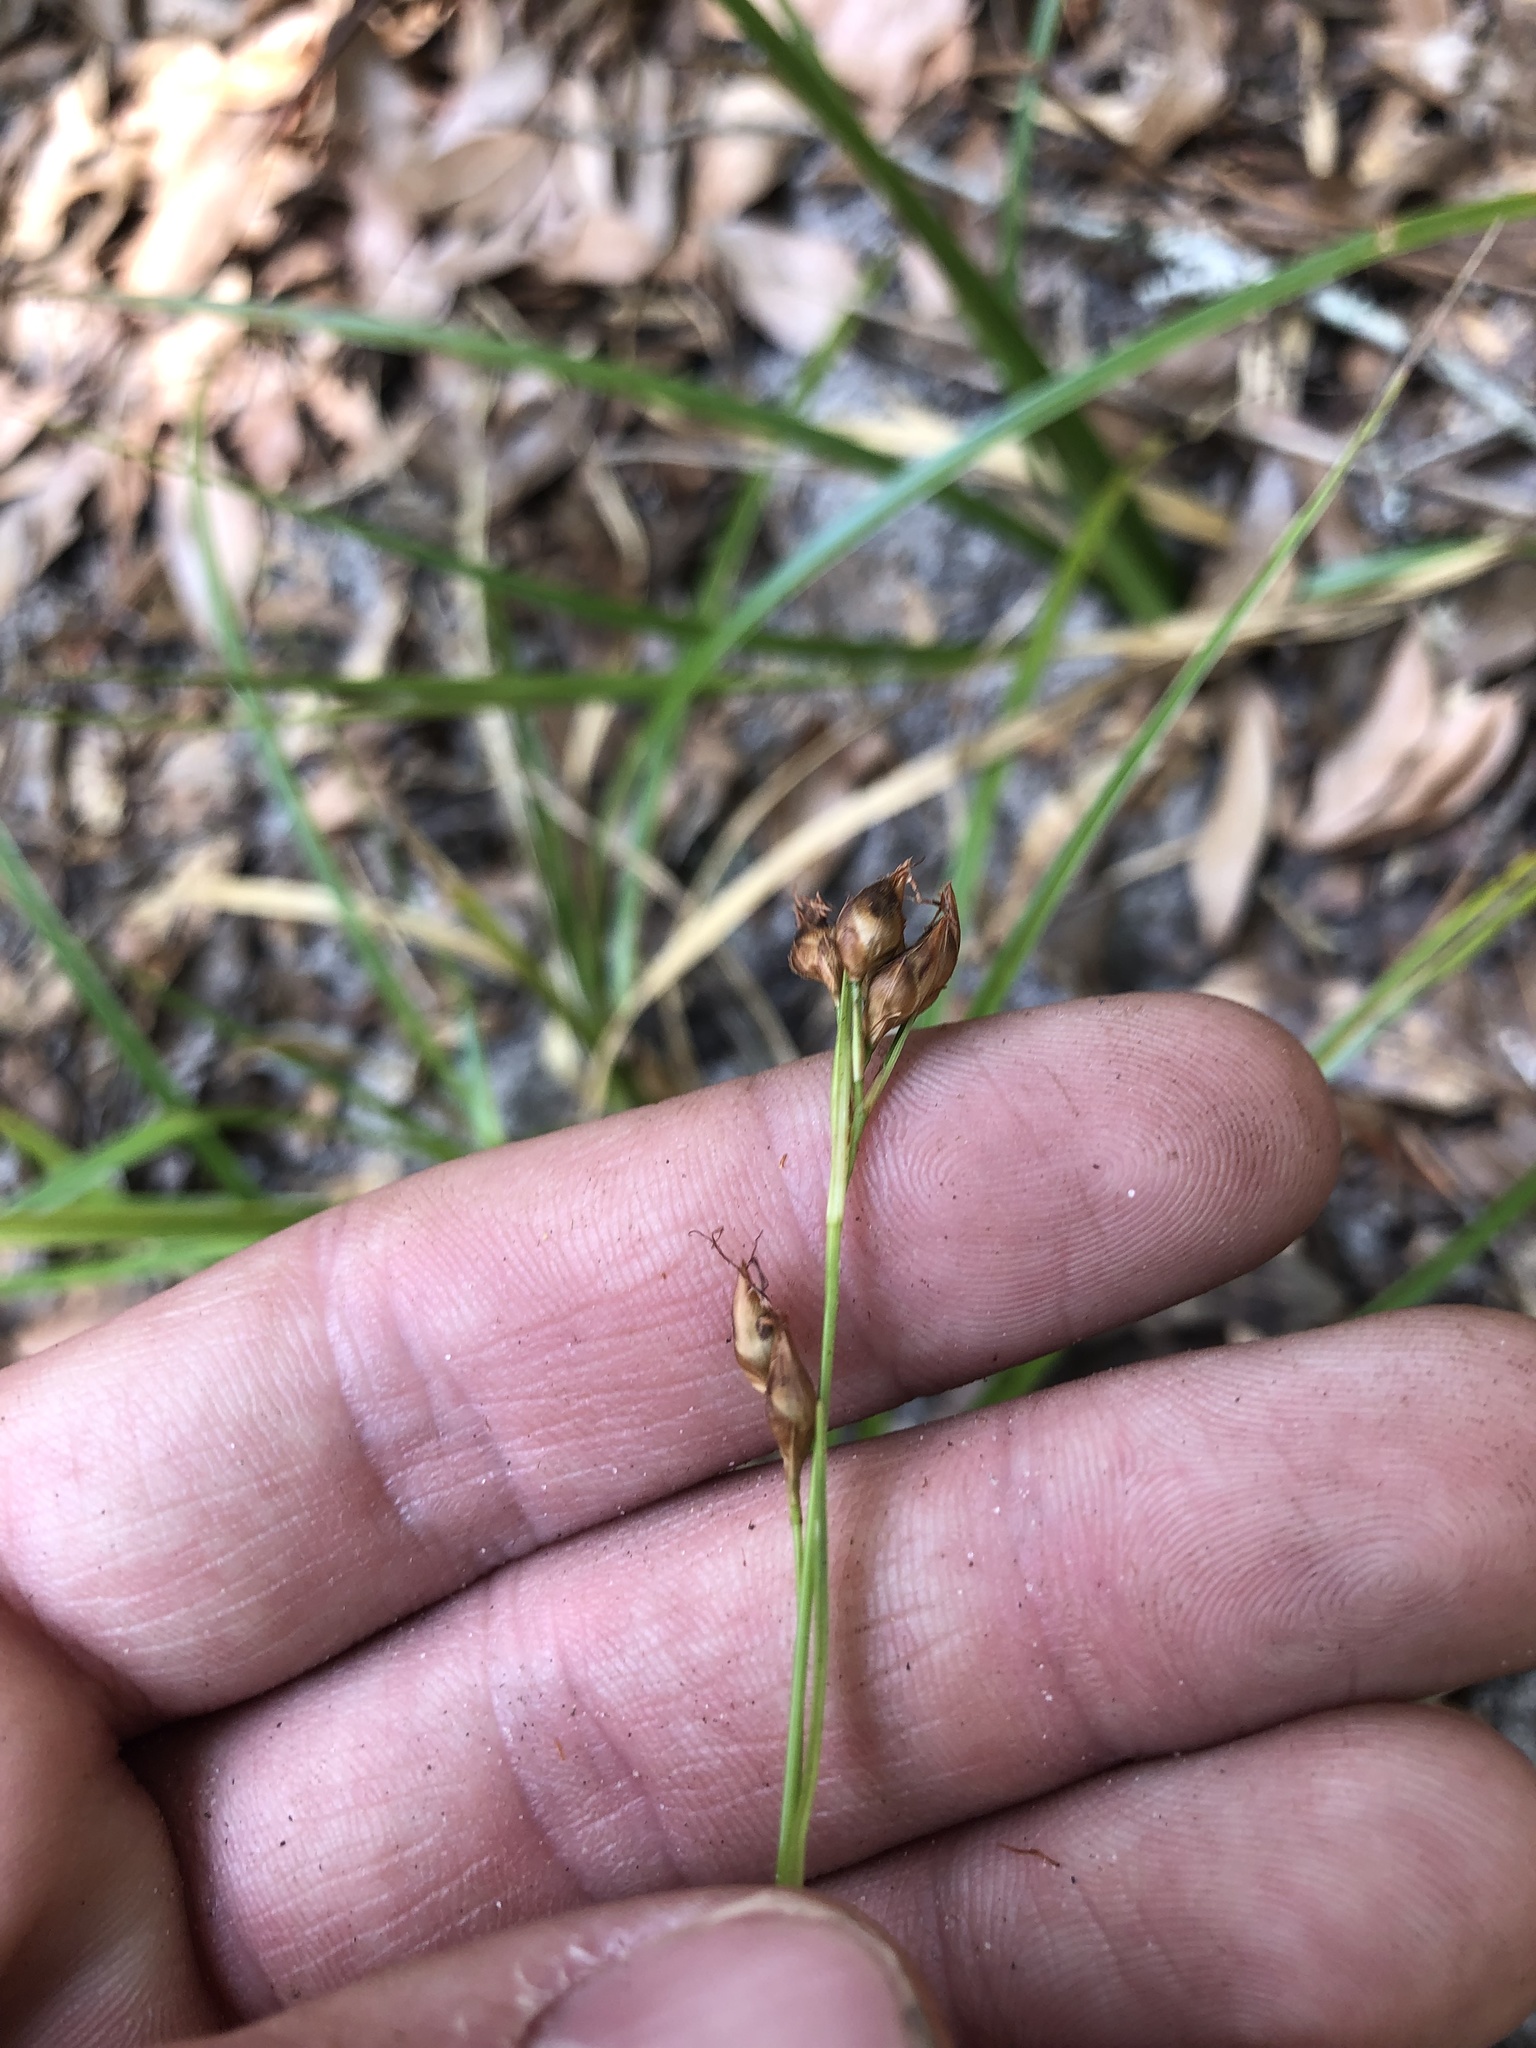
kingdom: Plantae
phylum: Tracheophyta
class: Liliopsida
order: Poales
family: Cyperaceae
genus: Rhynchospora
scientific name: Rhynchospora megalocarpa
